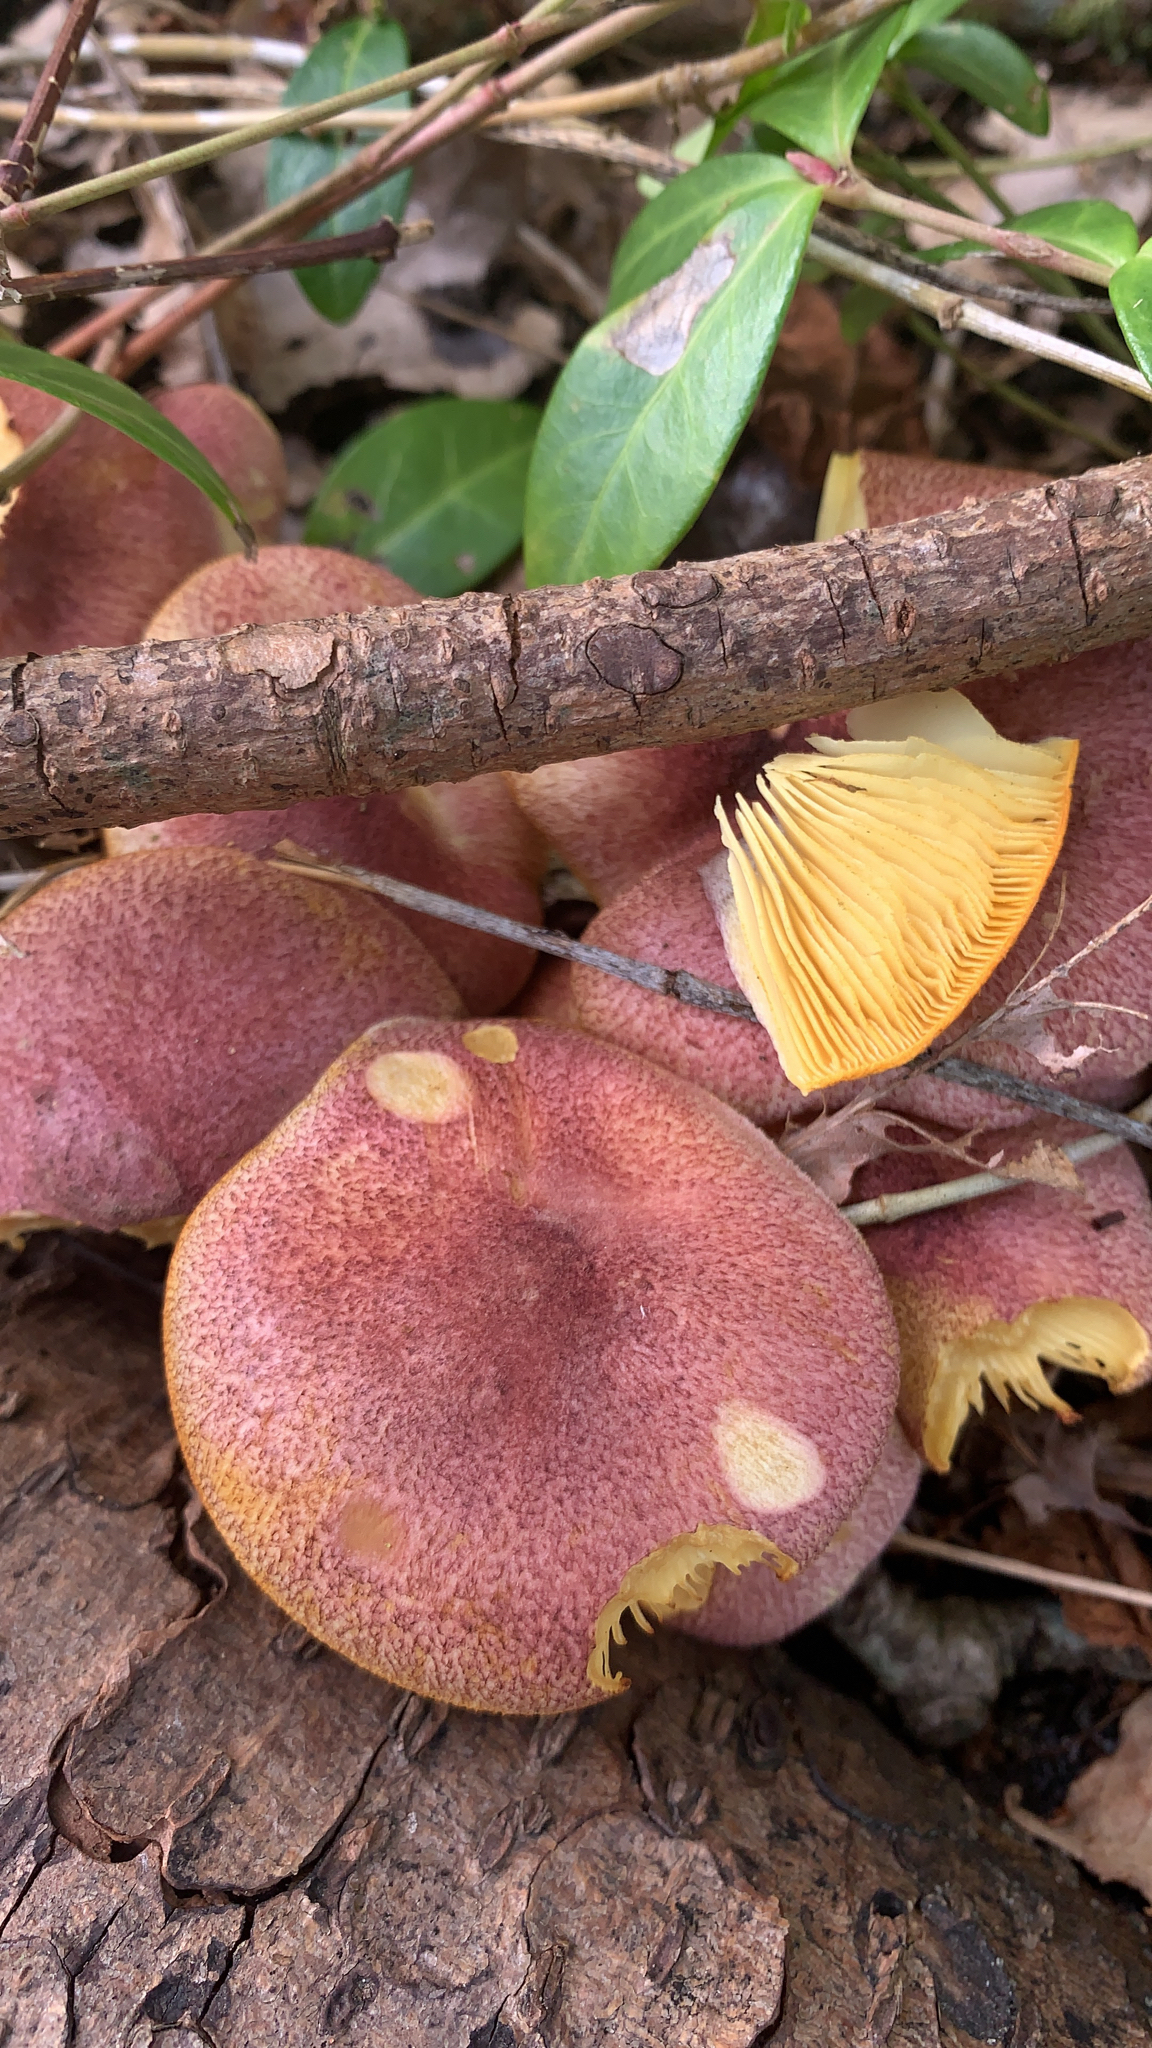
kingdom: Fungi
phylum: Basidiomycota
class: Agaricomycetes
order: Agaricales
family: Tricholomataceae
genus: Tricholomopsis
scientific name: Tricholomopsis rutilans
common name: Plums and custard
